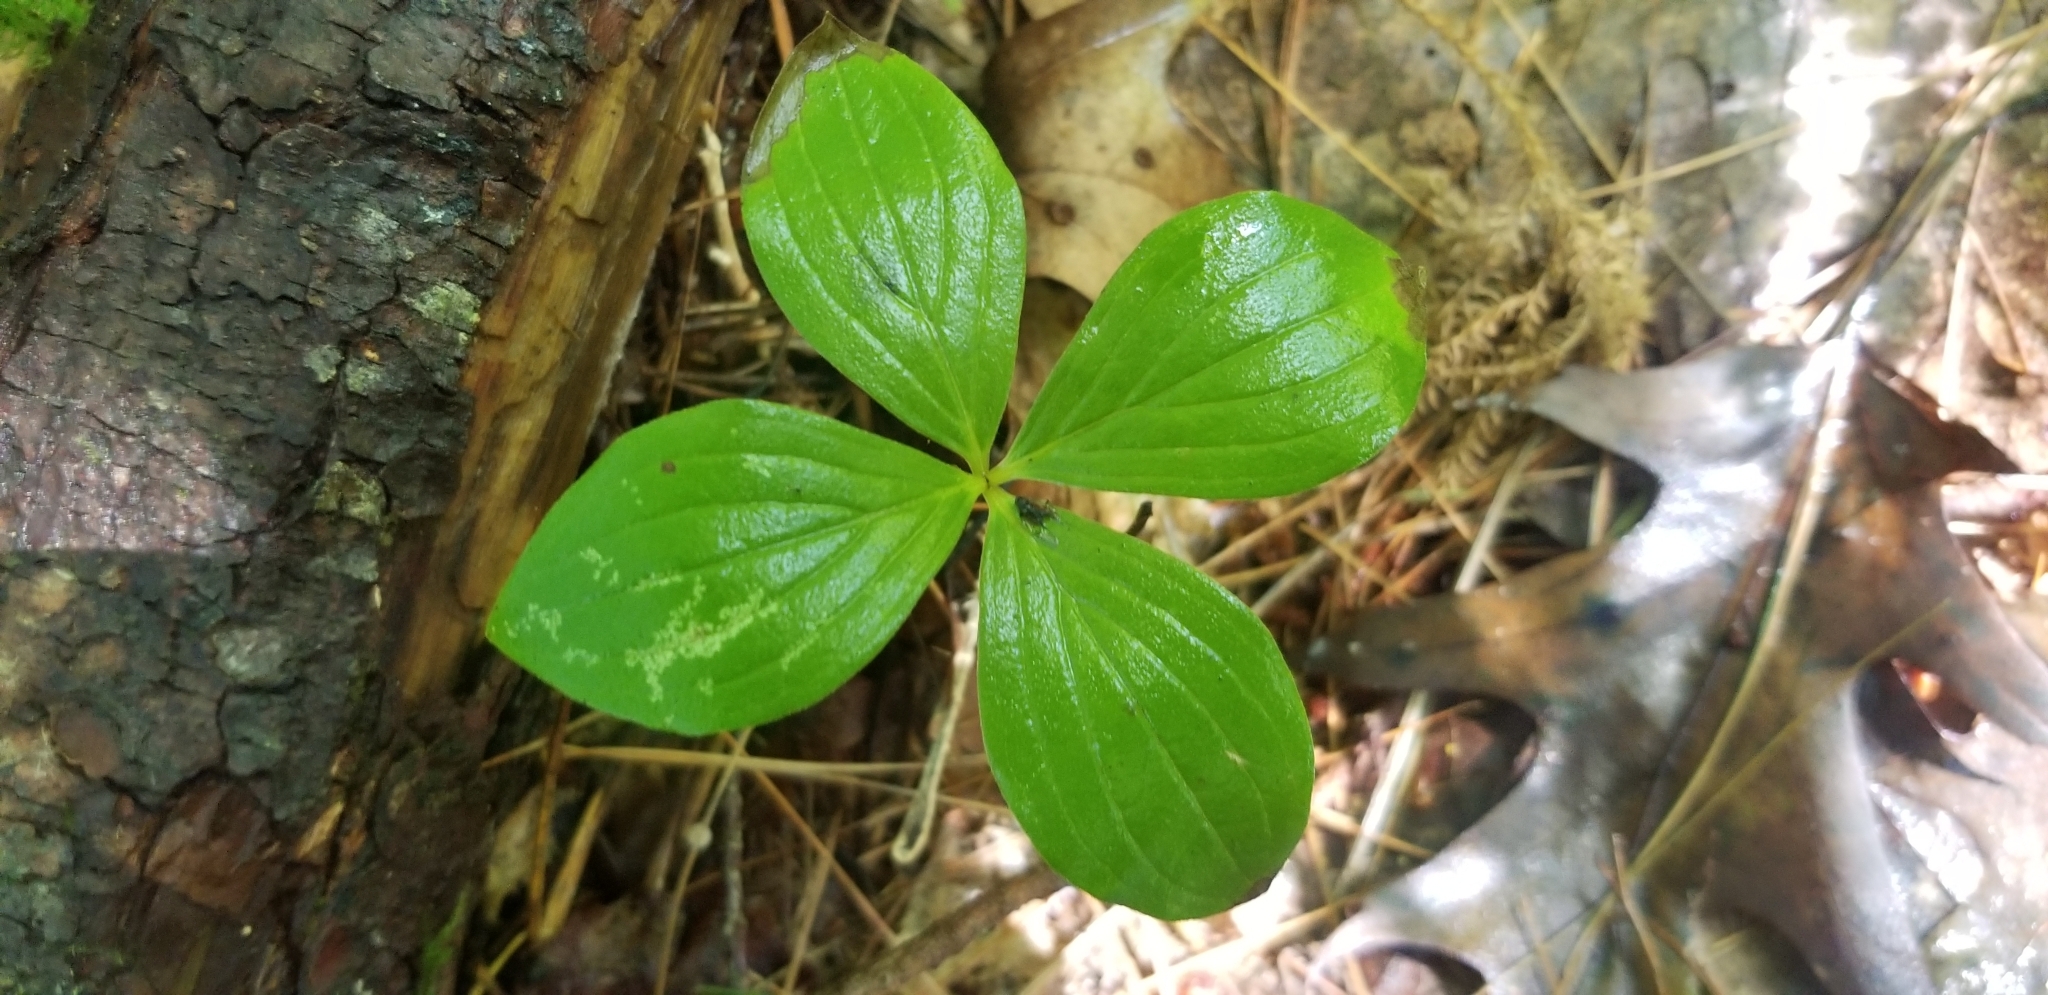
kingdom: Plantae
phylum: Tracheophyta
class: Magnoliopsida
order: Cornales
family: Cornaceae
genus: Cornus
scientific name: Cornus canadensis
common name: Creeping dogwood
